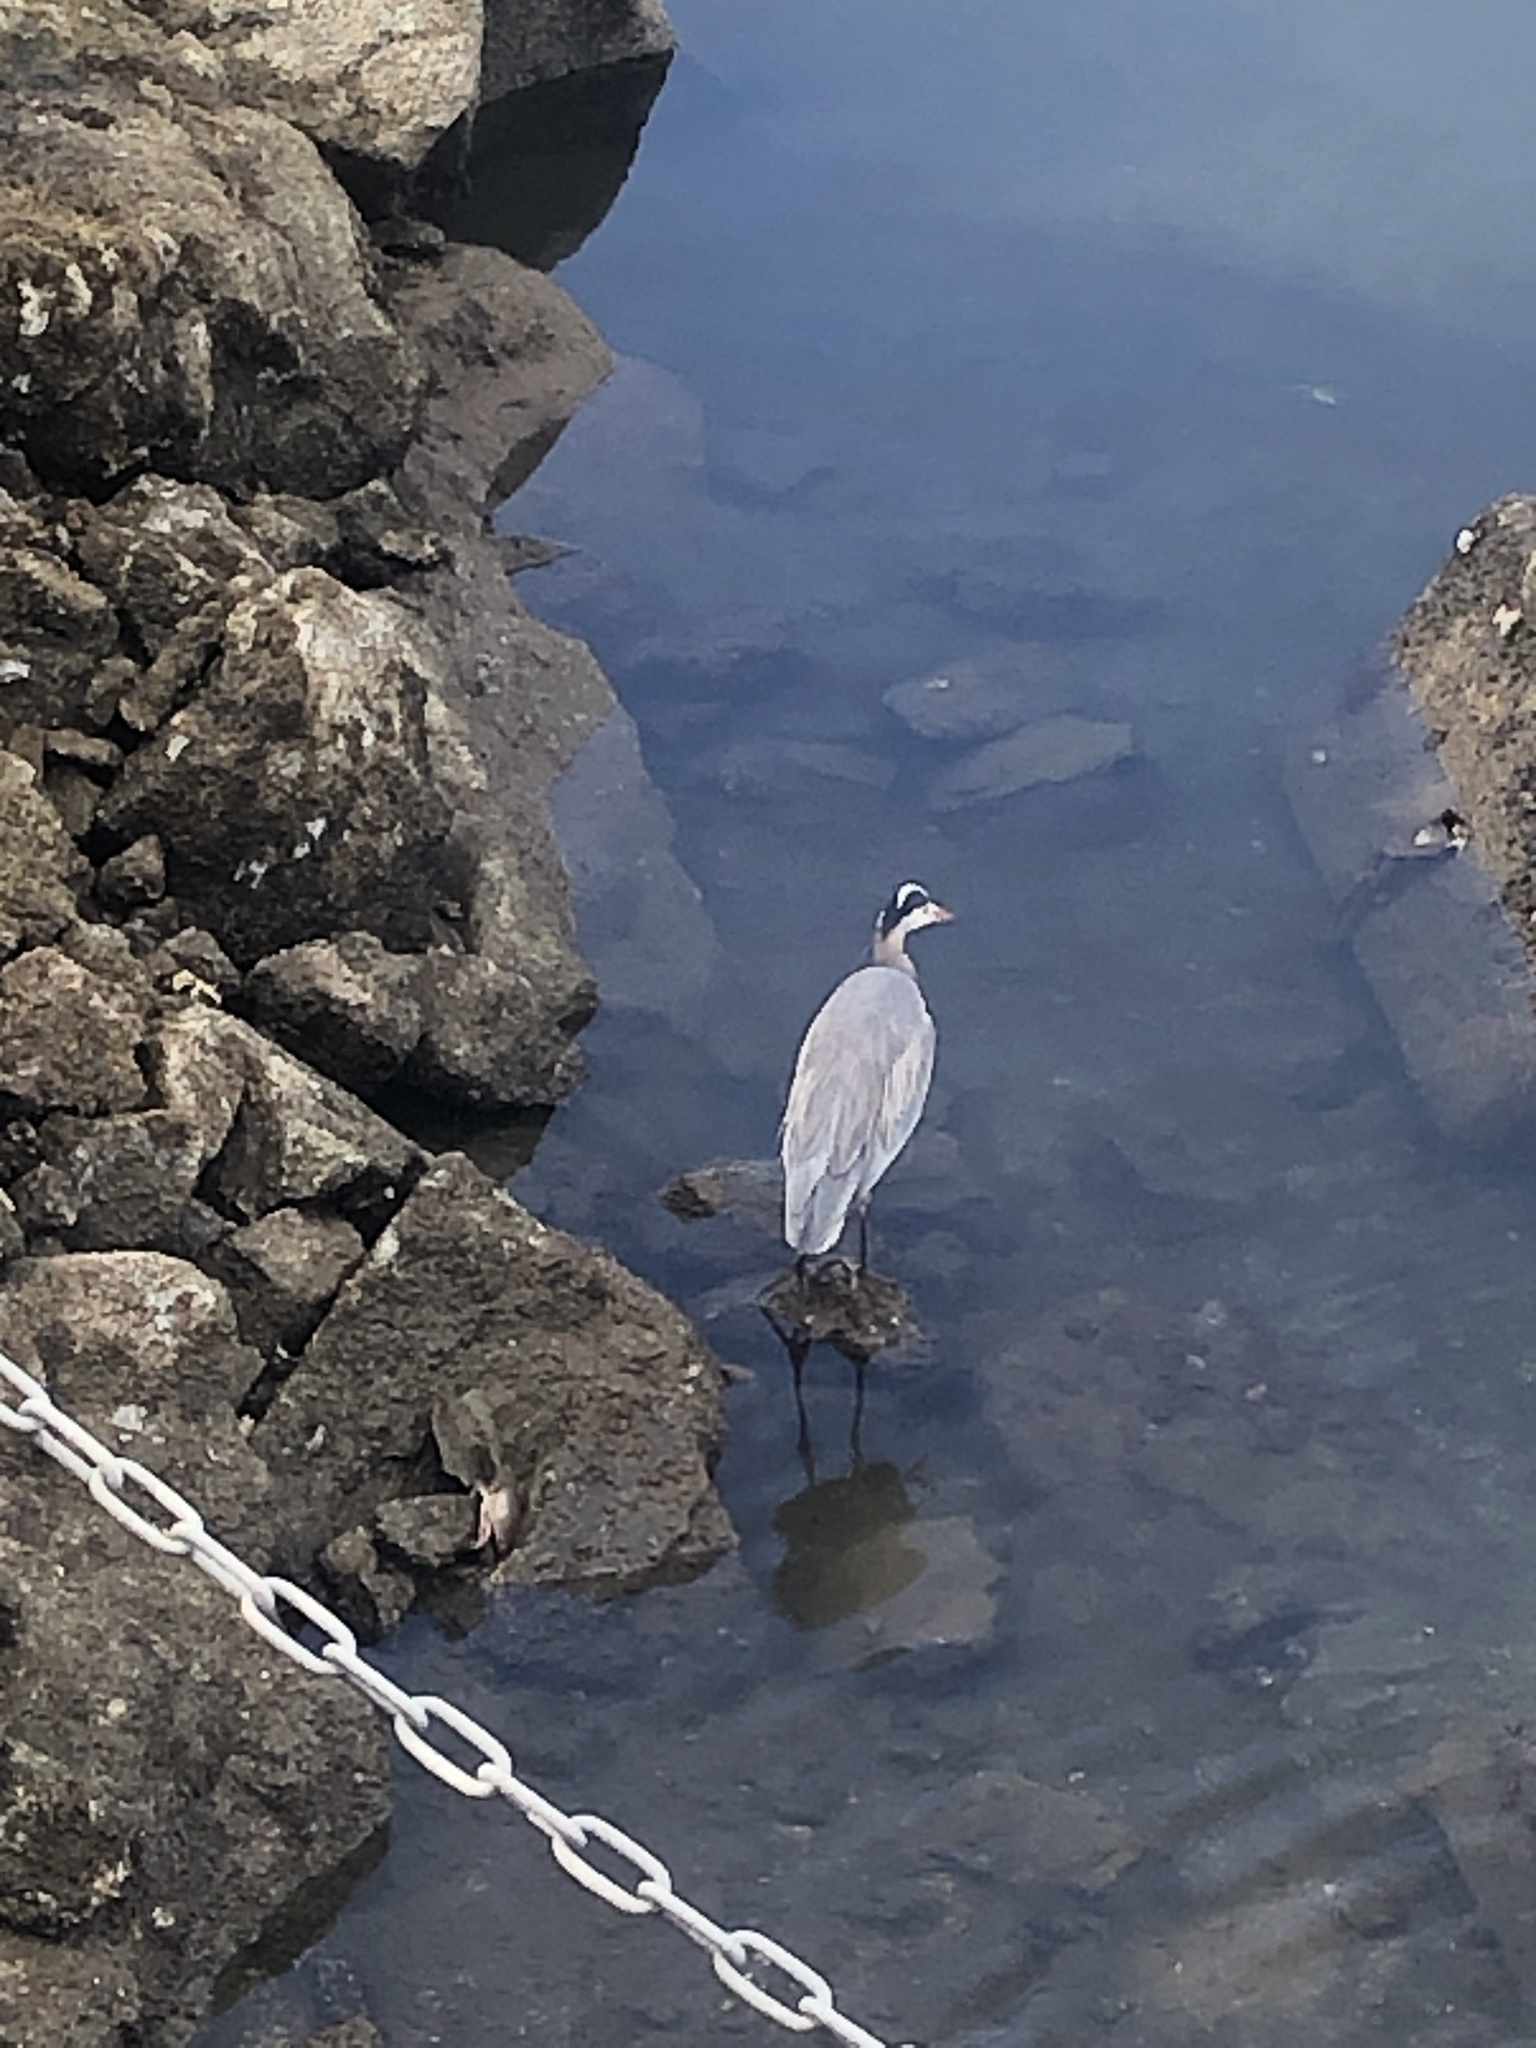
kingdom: Animalia
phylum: Chordata
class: Aves
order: Pelecaniformes
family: Ardeidae
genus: Ardea
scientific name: Ardea herodias
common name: Great blue heron
